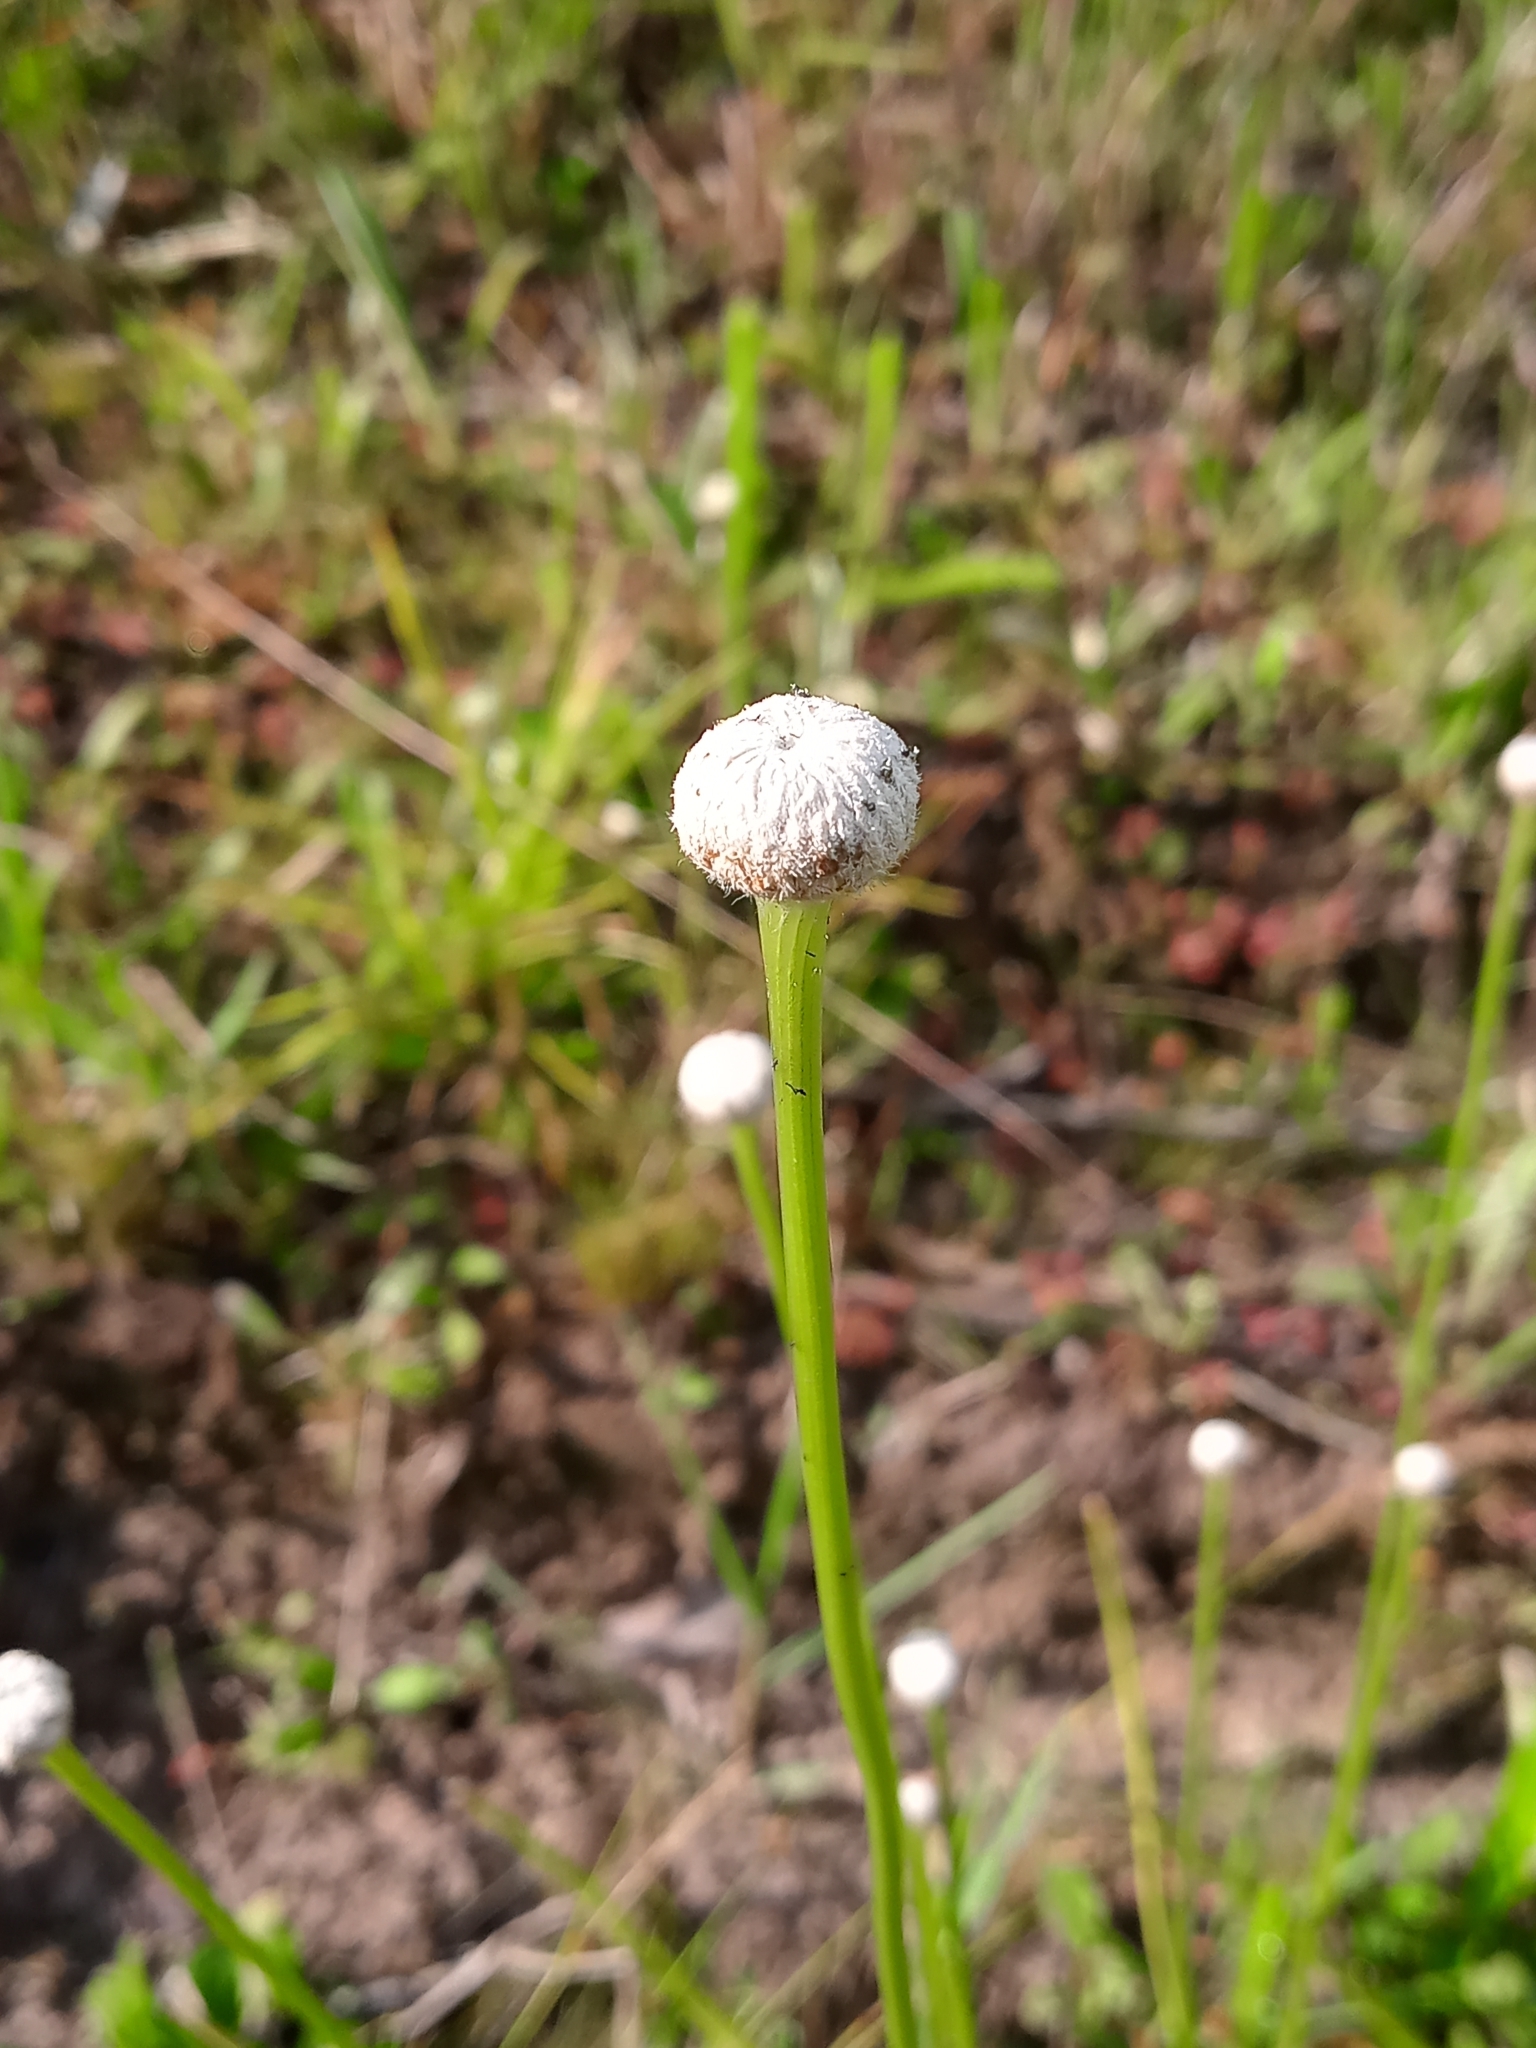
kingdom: Plantae
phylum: Tracheophyta
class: Liliopsida
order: Poales
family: Eriocaulaceae
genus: Eriocaulon
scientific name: Eriocaulon decangulare
